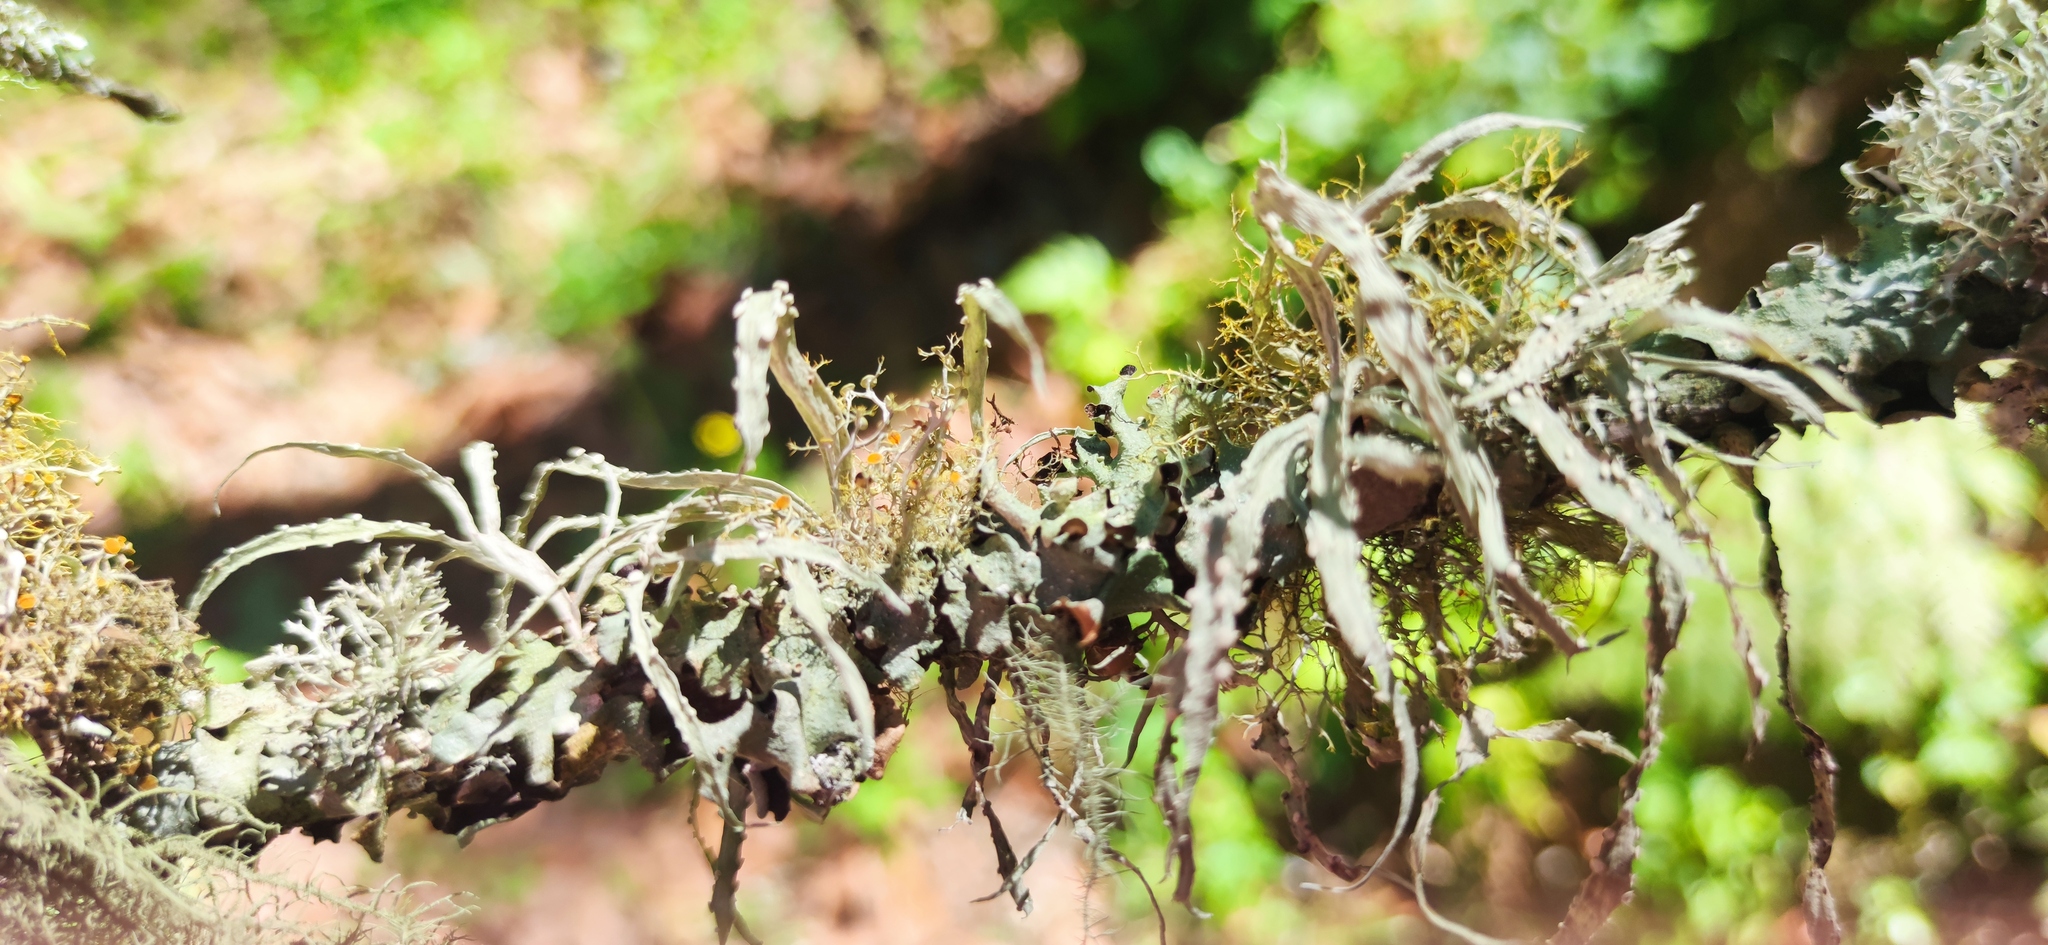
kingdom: Fungi
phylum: Ascomycota
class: Lecanoromycetes
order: Lecanorales
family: Ramalinaceae
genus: Ramalina
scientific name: Ramalina celastri
